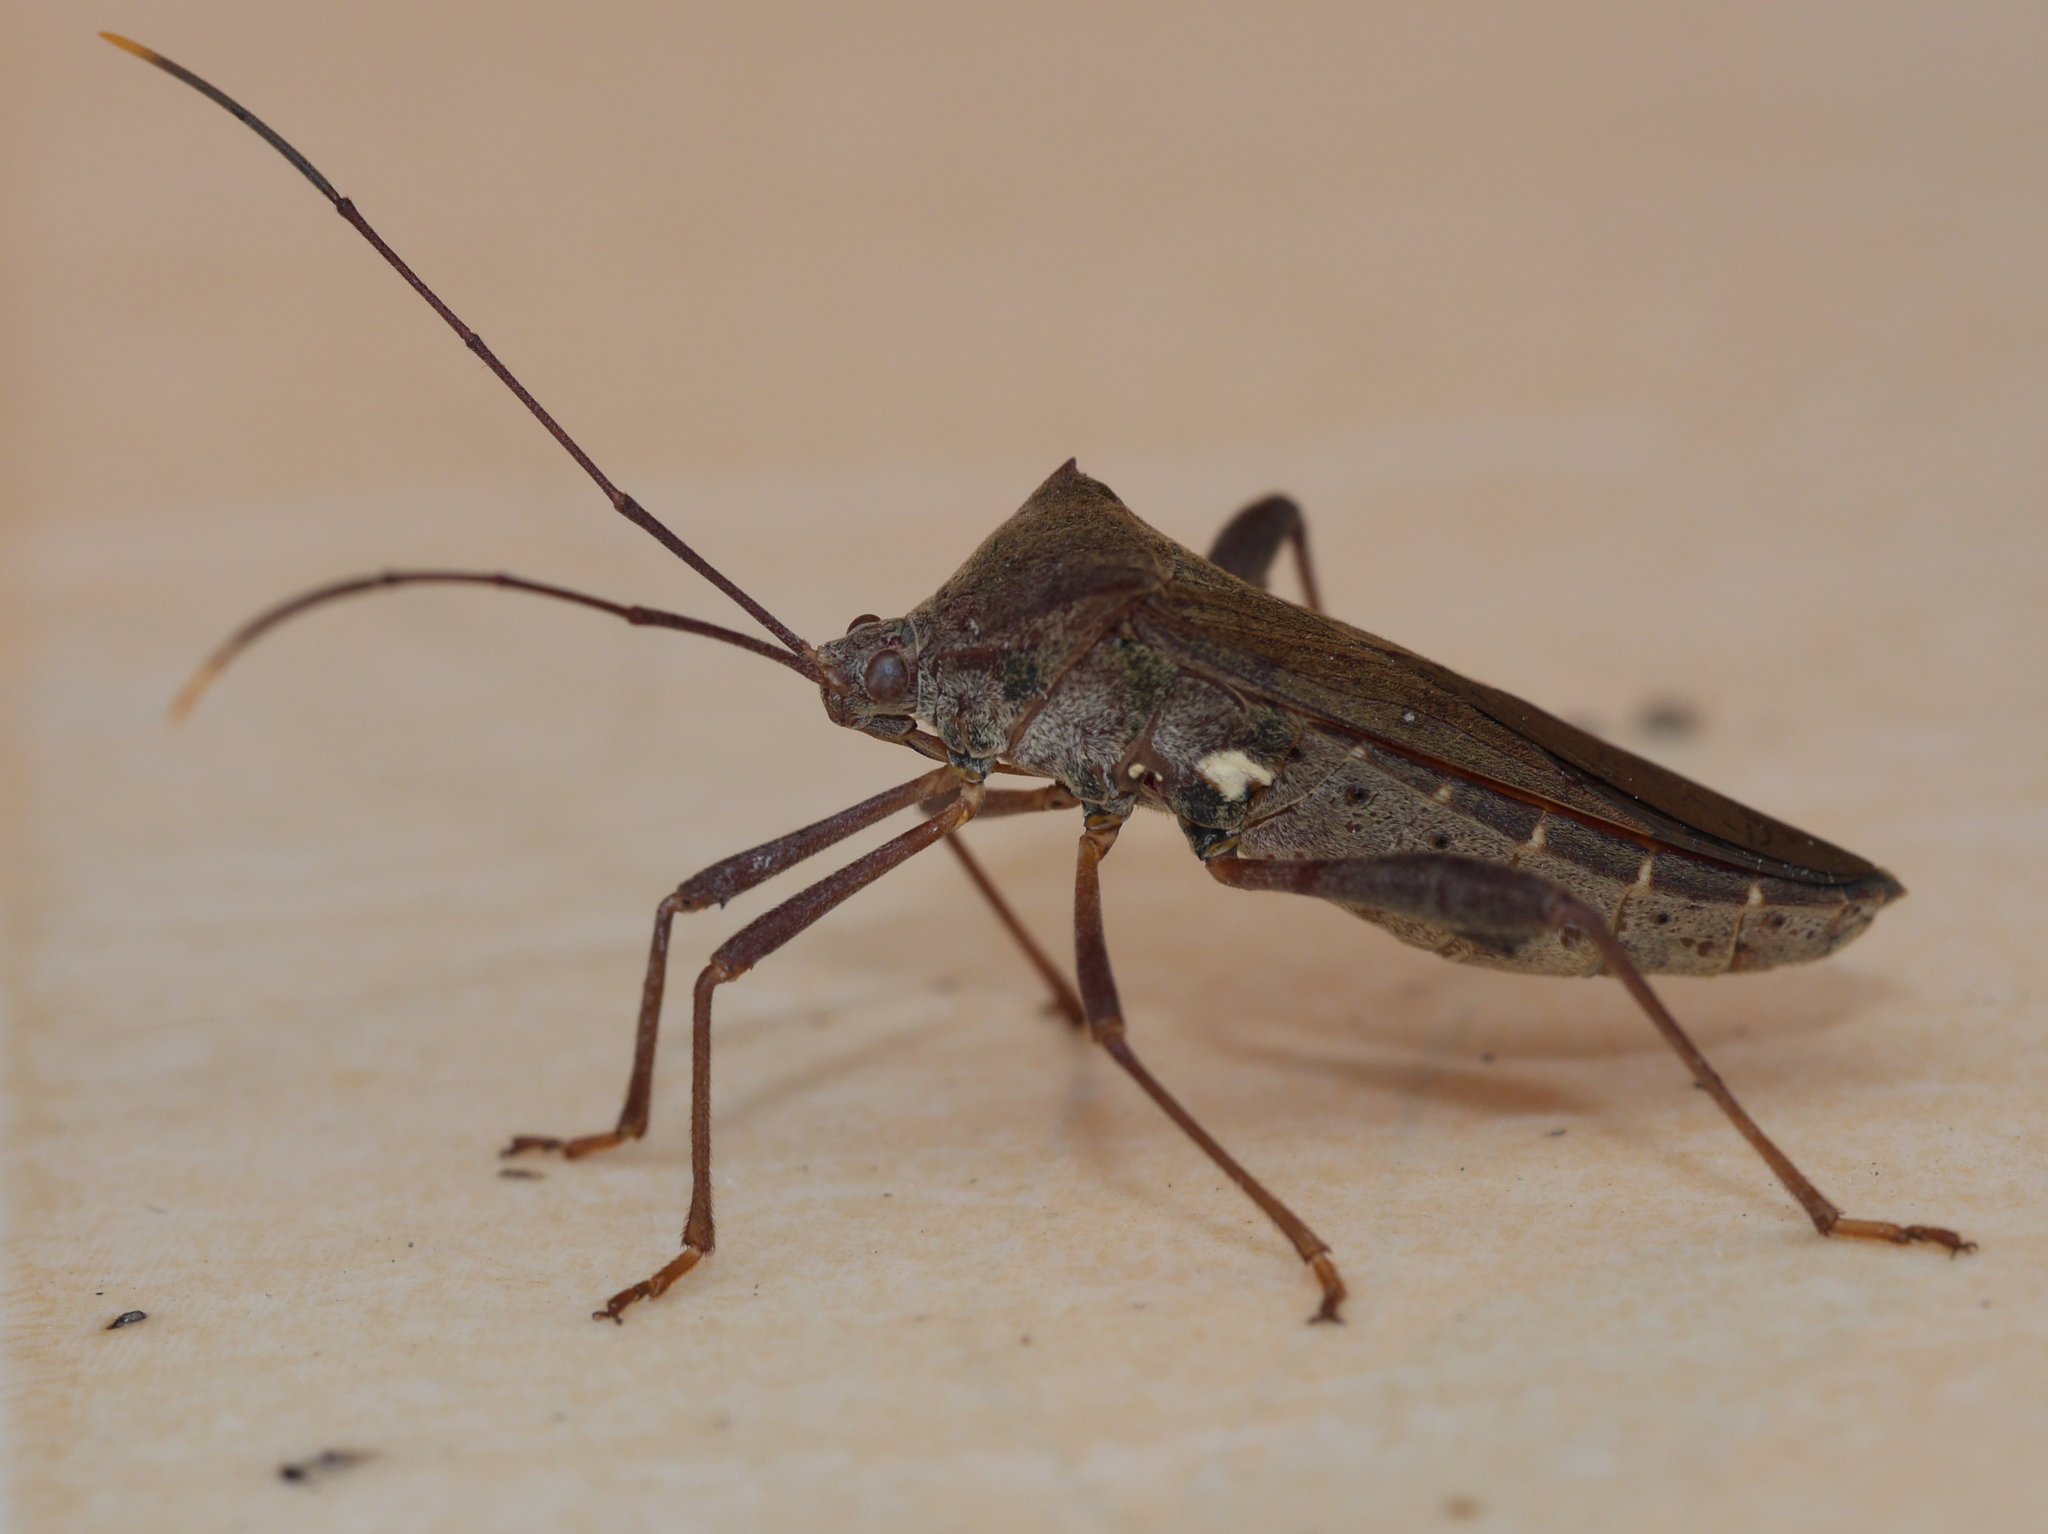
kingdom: Animalia
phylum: Arthropoda
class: Insecta
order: Hemiptera
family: Coreidae
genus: Mictis
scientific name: Mictis longicornis
